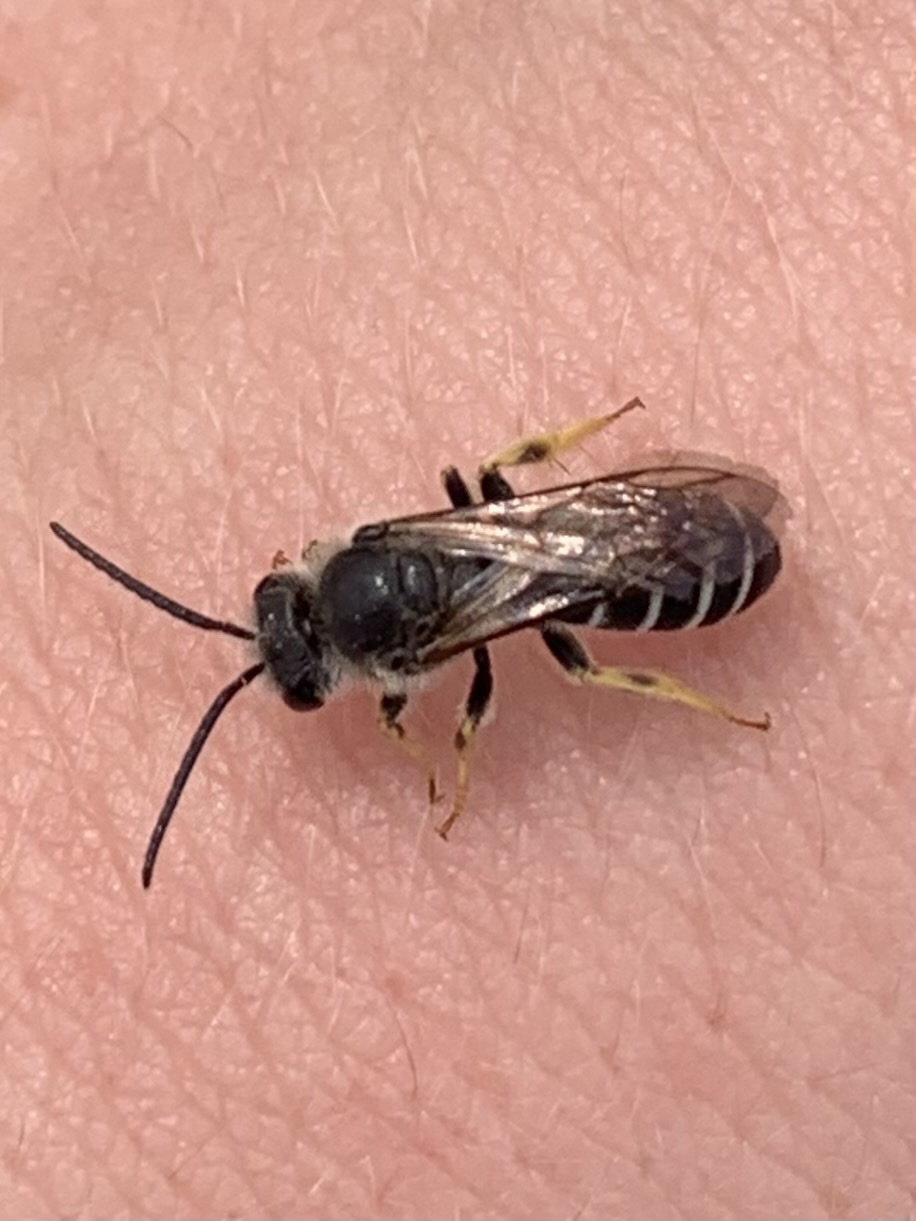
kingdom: Animalia
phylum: Arthropoda
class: Insecta
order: Hymenoptera
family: Halictidae
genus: Halictus
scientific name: Halictus rubicundus
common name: Orange-legged furrow bee
